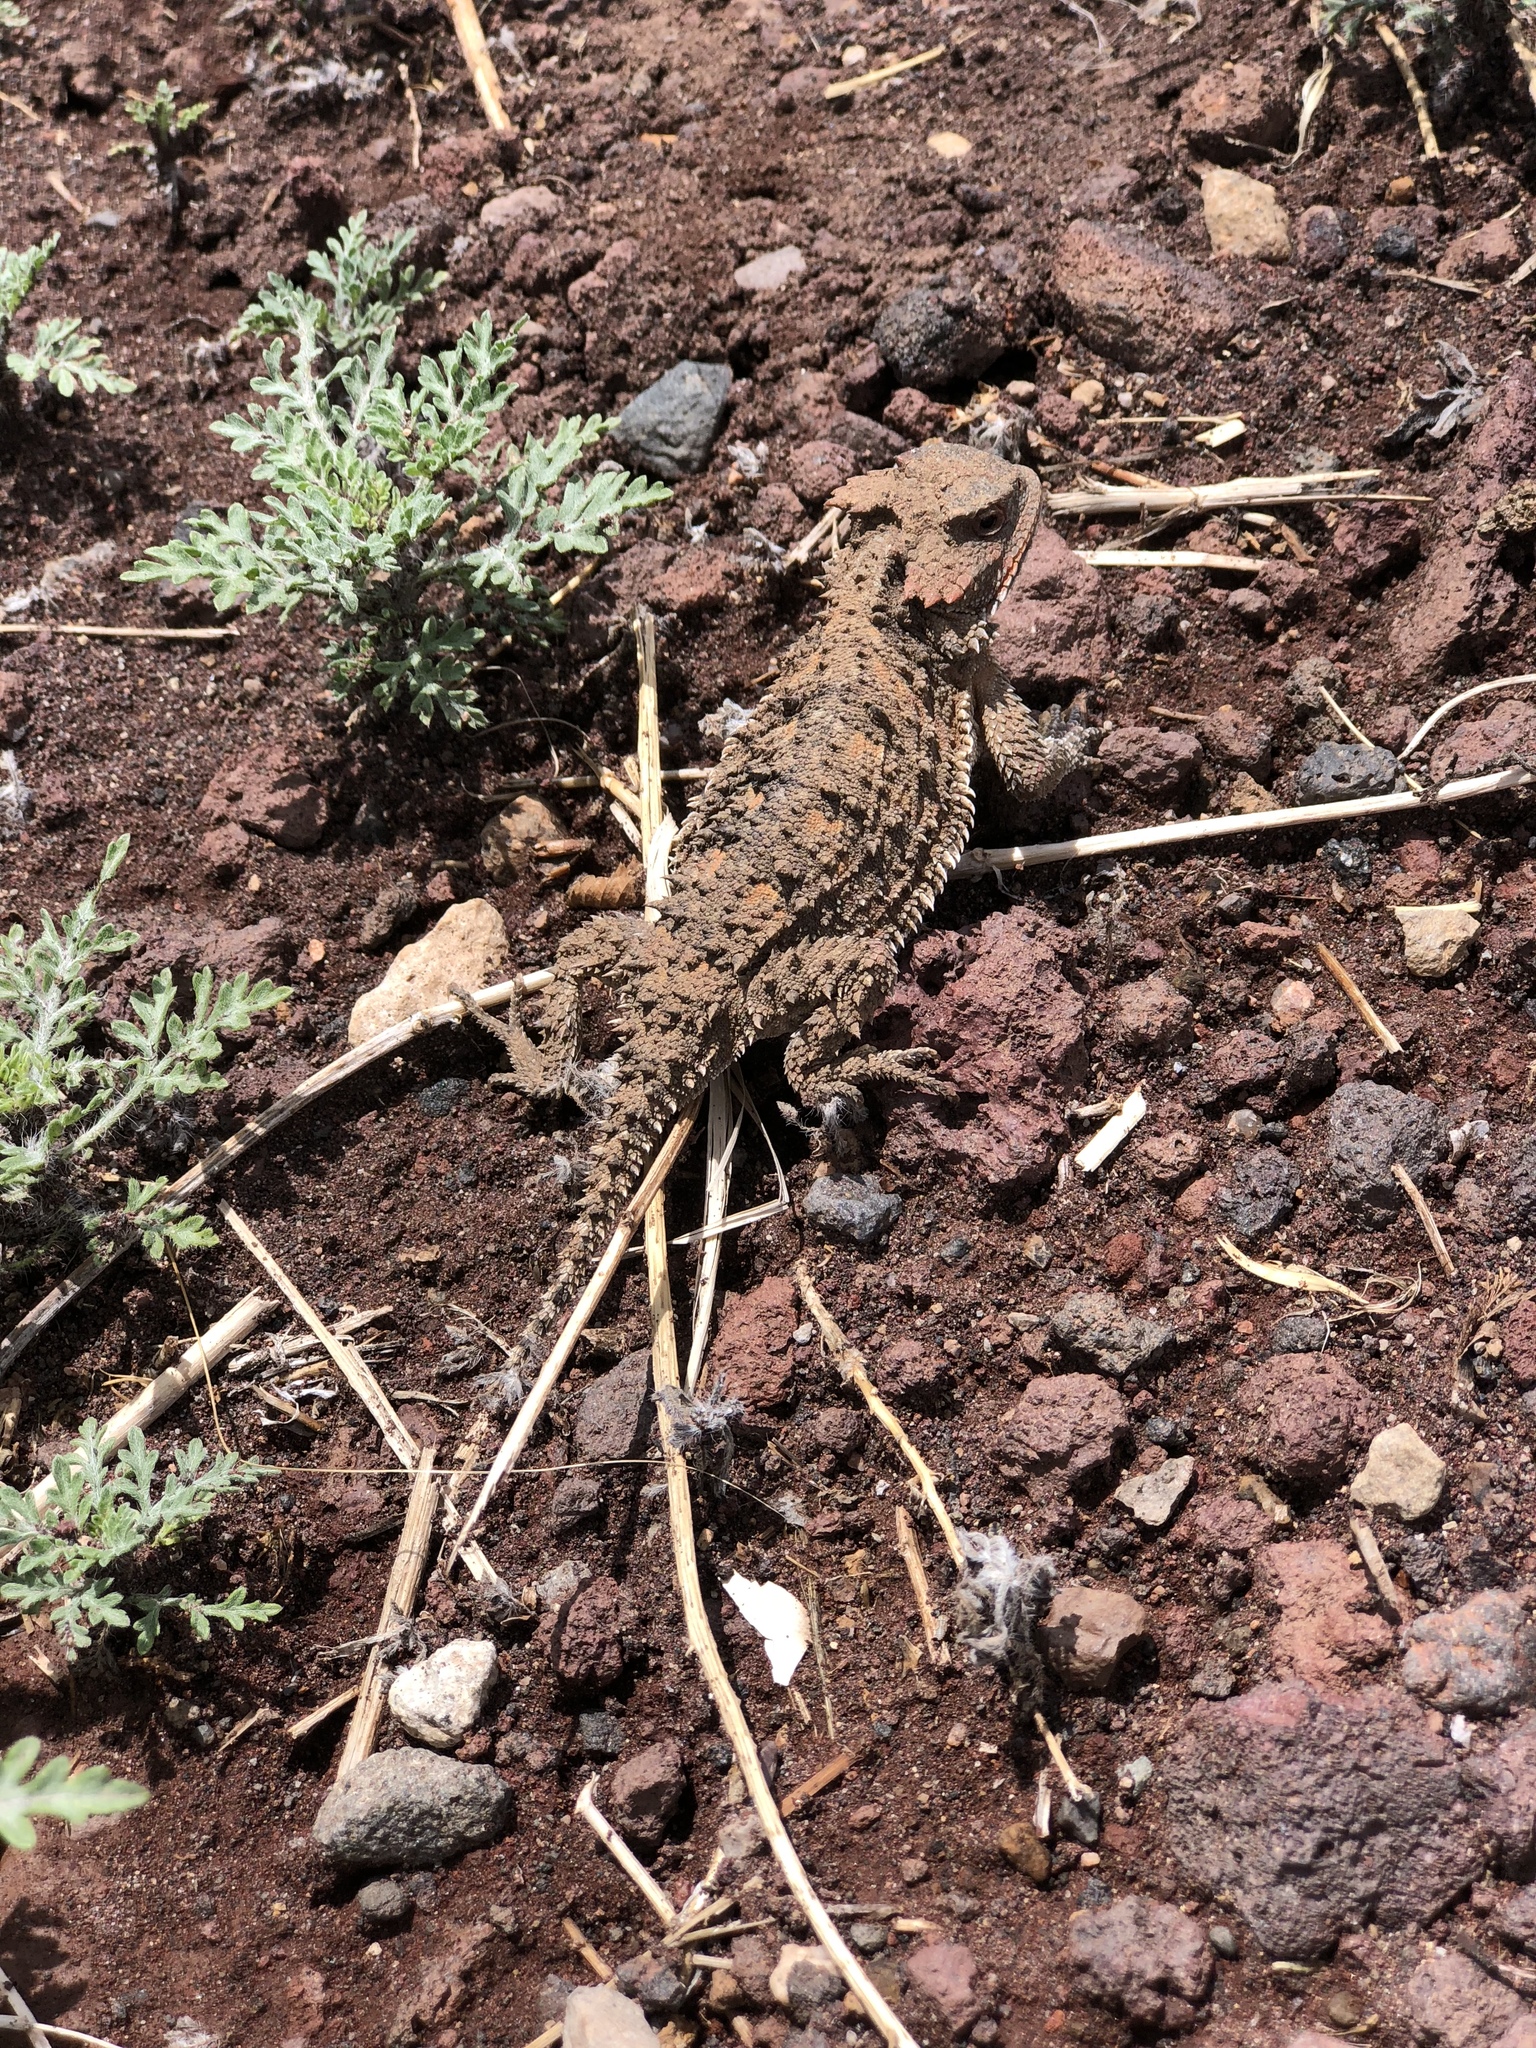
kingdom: Animalia
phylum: Chordata
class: Squamata
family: Phrynosomatidae
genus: Phrynosoma
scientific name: Phrynosoma hernandesi
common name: Greater short-horned lizard
